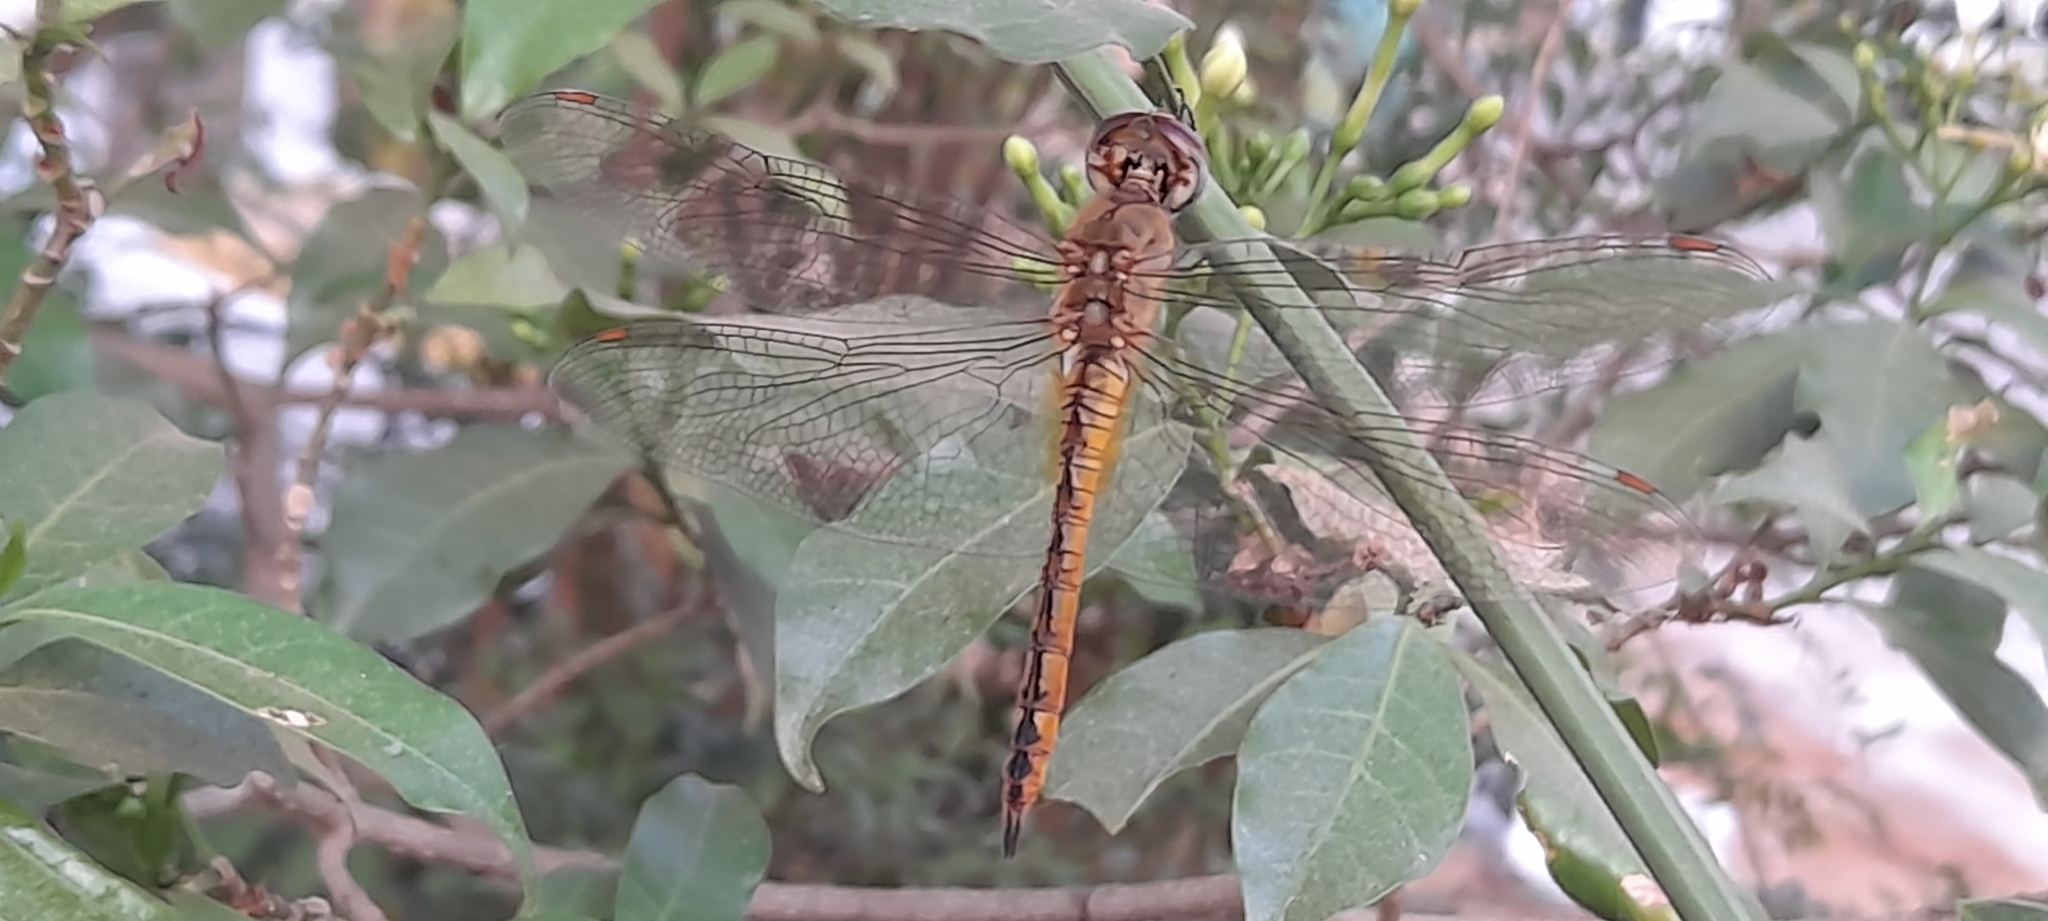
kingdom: Animalia
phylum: Arthropoda
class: Insecta
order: Odonata
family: Libellulidae
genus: Pantala
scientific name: Pantala flavescens
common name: Wandering glider
